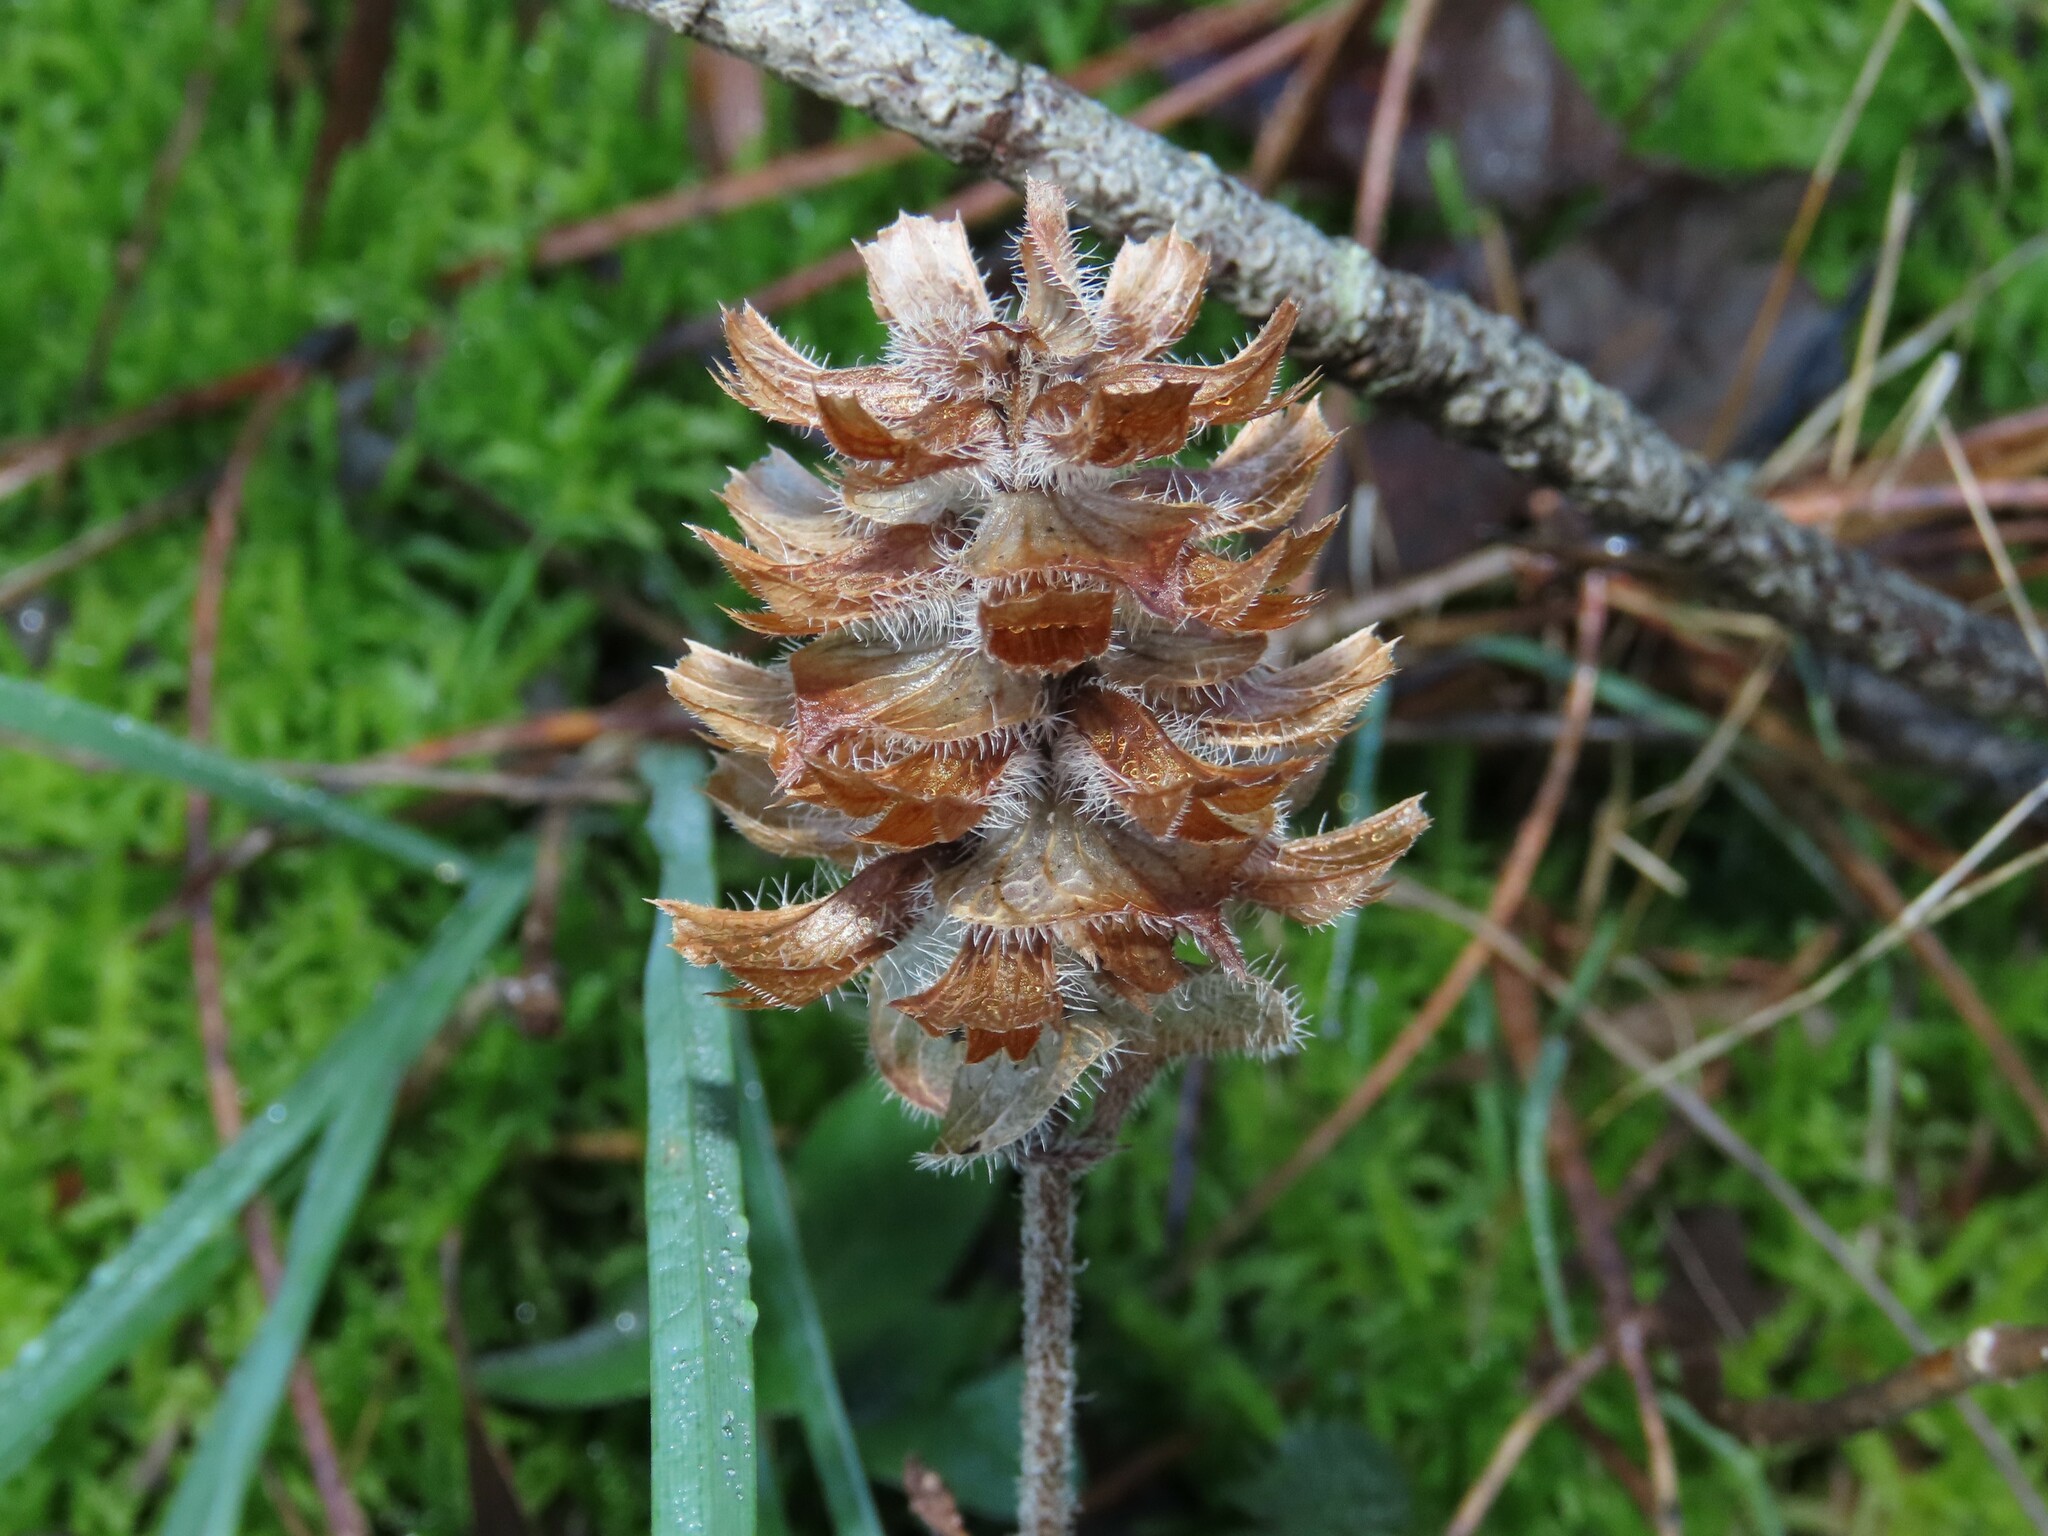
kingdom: Plantae
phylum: Tracheophyta
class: Magnoliopsida
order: Lamiales
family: Lamiaceae
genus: Prunella
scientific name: Prunella vulgaris
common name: Heal-all
